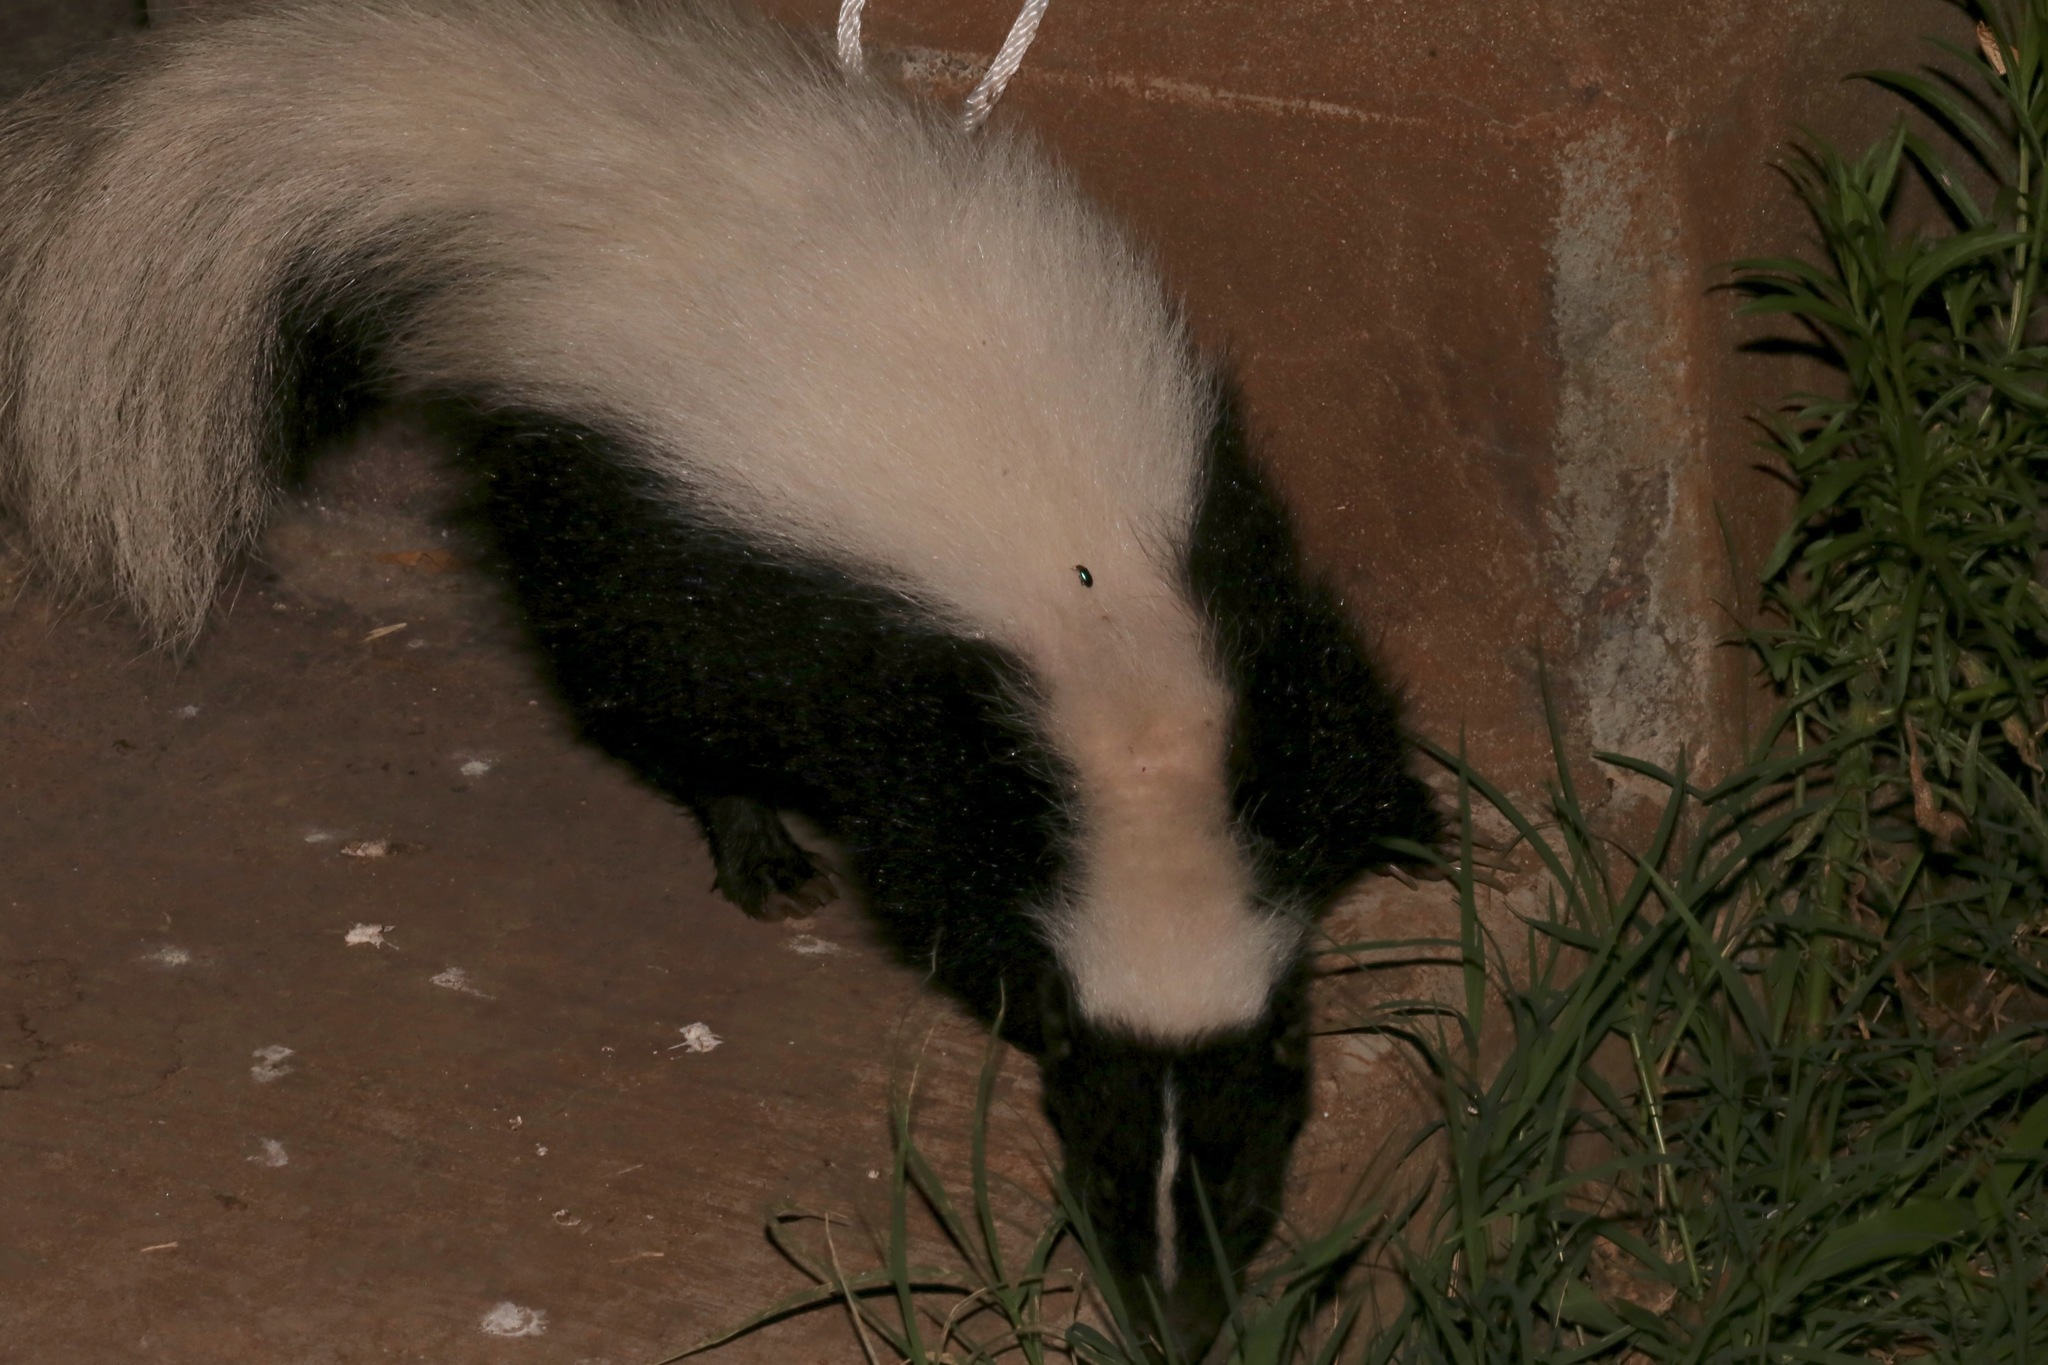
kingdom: Animalia
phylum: Chordata
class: Mammalia
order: Carnivora
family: Mephitidae
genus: Mephitis
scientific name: Mephitis mephitis
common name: Striped skunk
